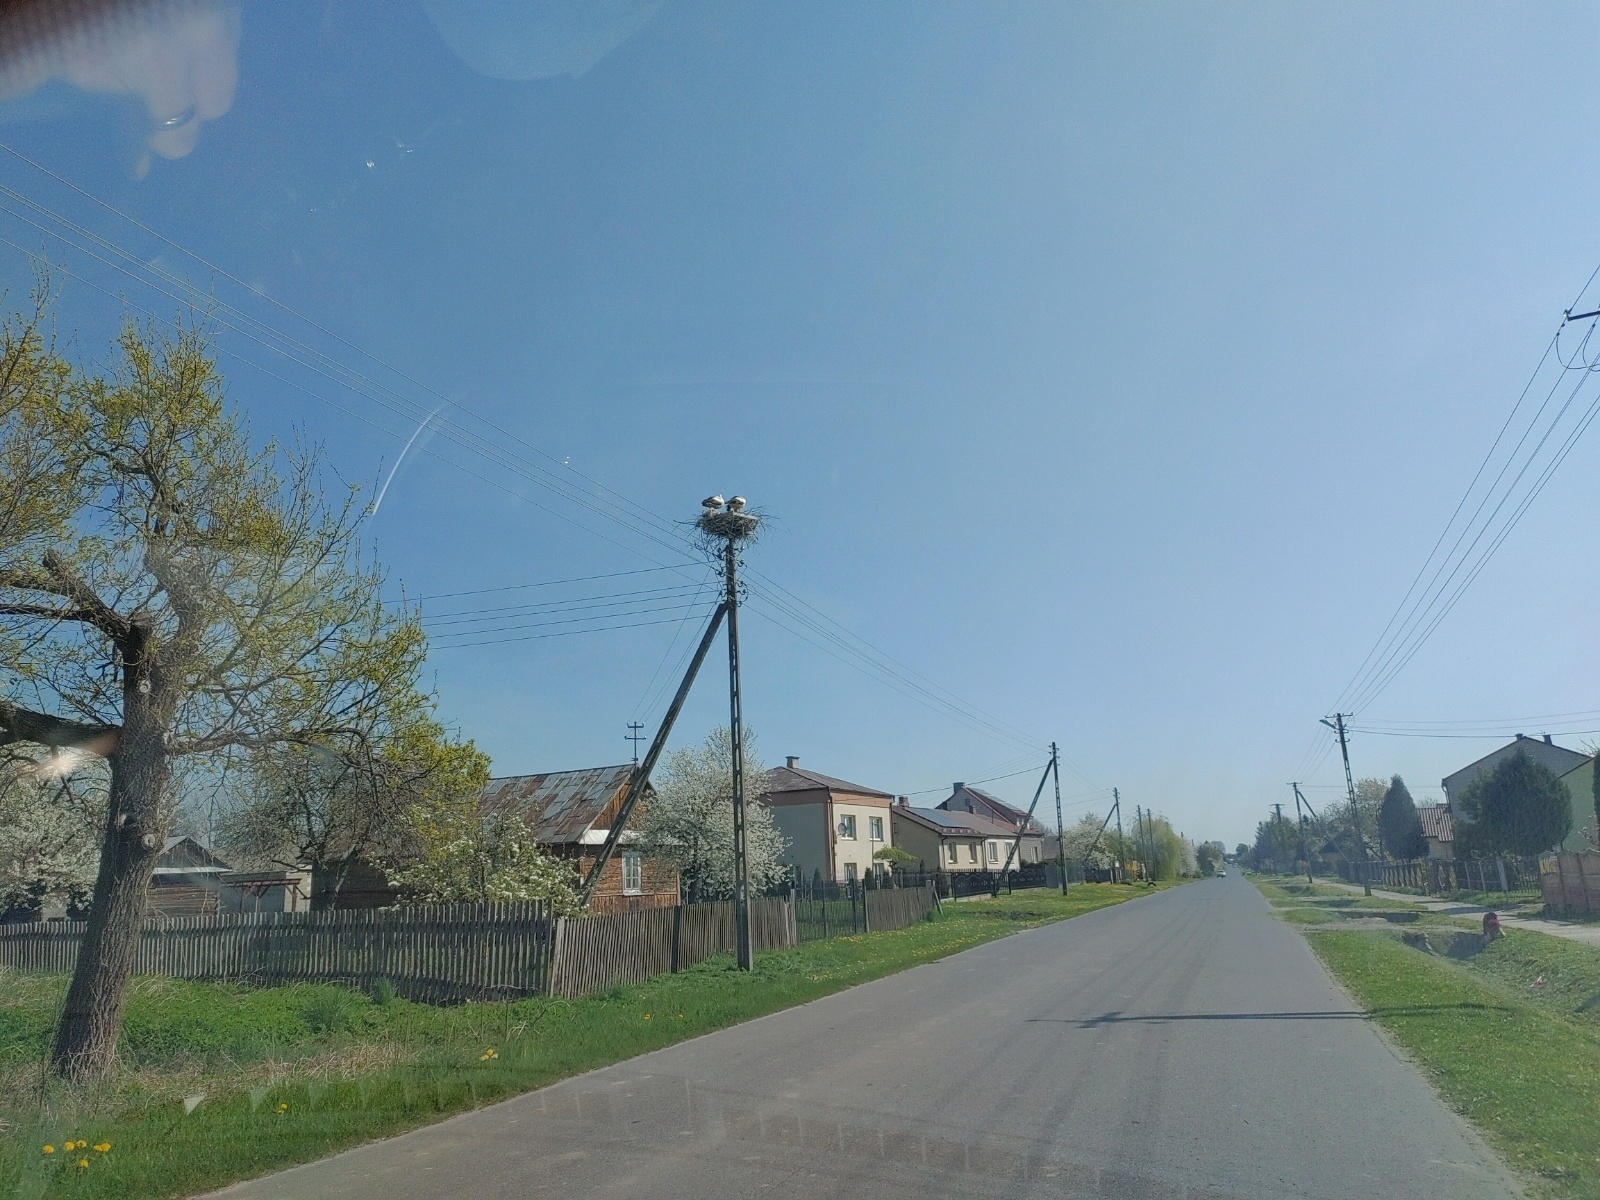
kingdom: Animalia
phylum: Chordata
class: Aves
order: Ciconiiformes
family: Ciconiidae
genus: Ciconia
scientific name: Ciconia ciconia
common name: White stork
